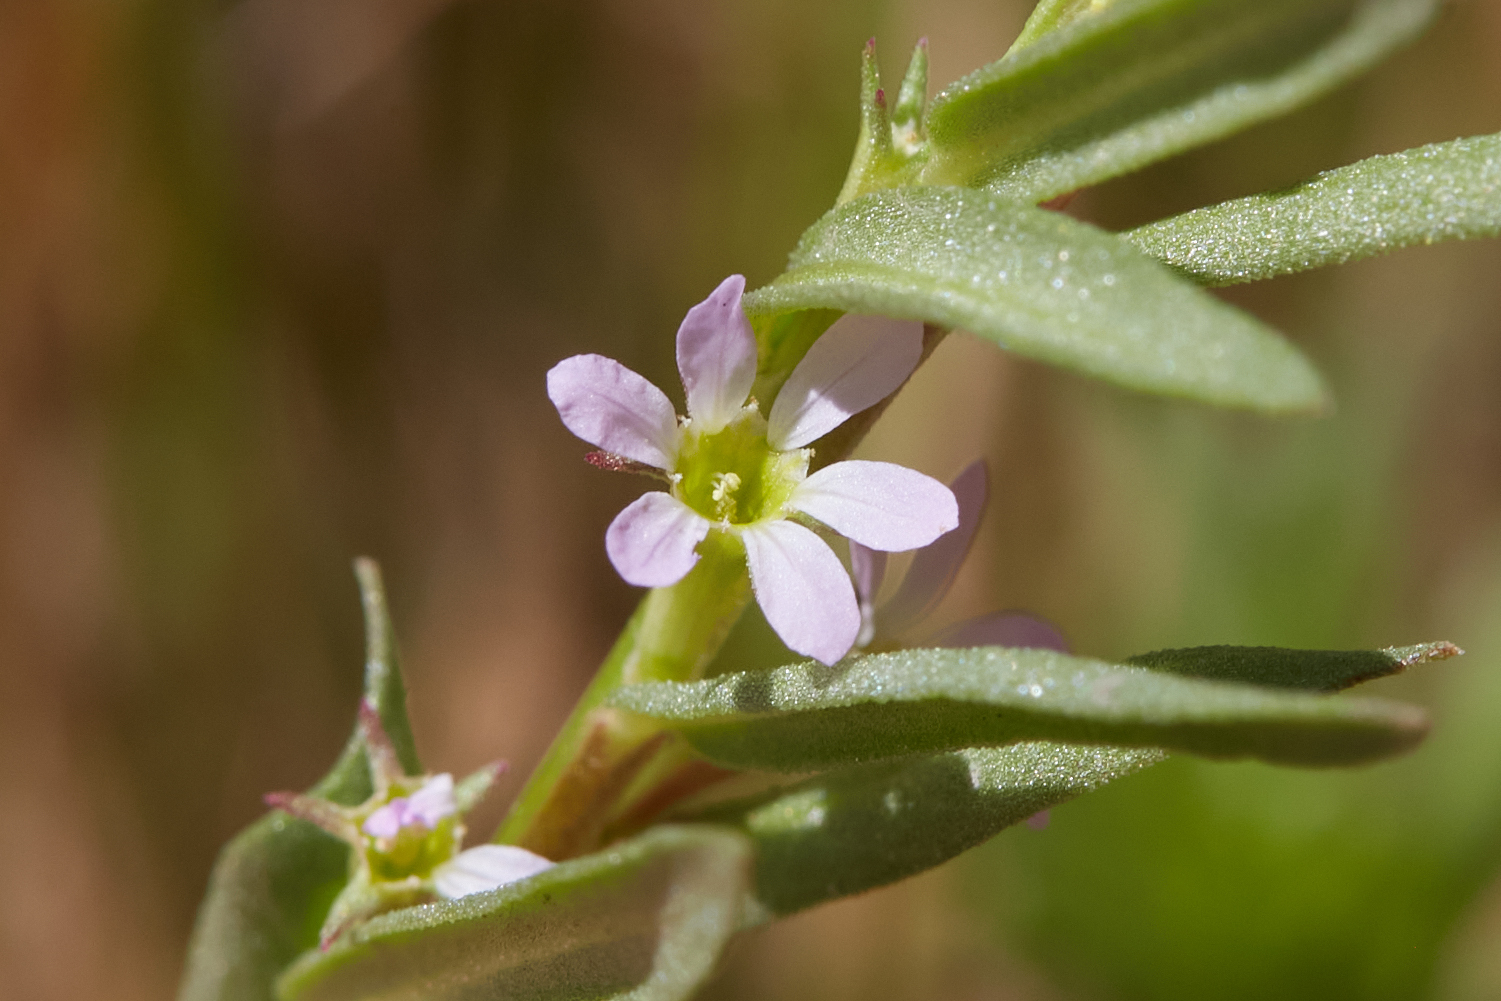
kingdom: Plantae
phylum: Tracheophyta
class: Magnoliopsida
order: Myrtales
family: Lythraceae
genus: Lythrum
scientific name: Lythrum hyssopifolia
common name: Grass-poly
